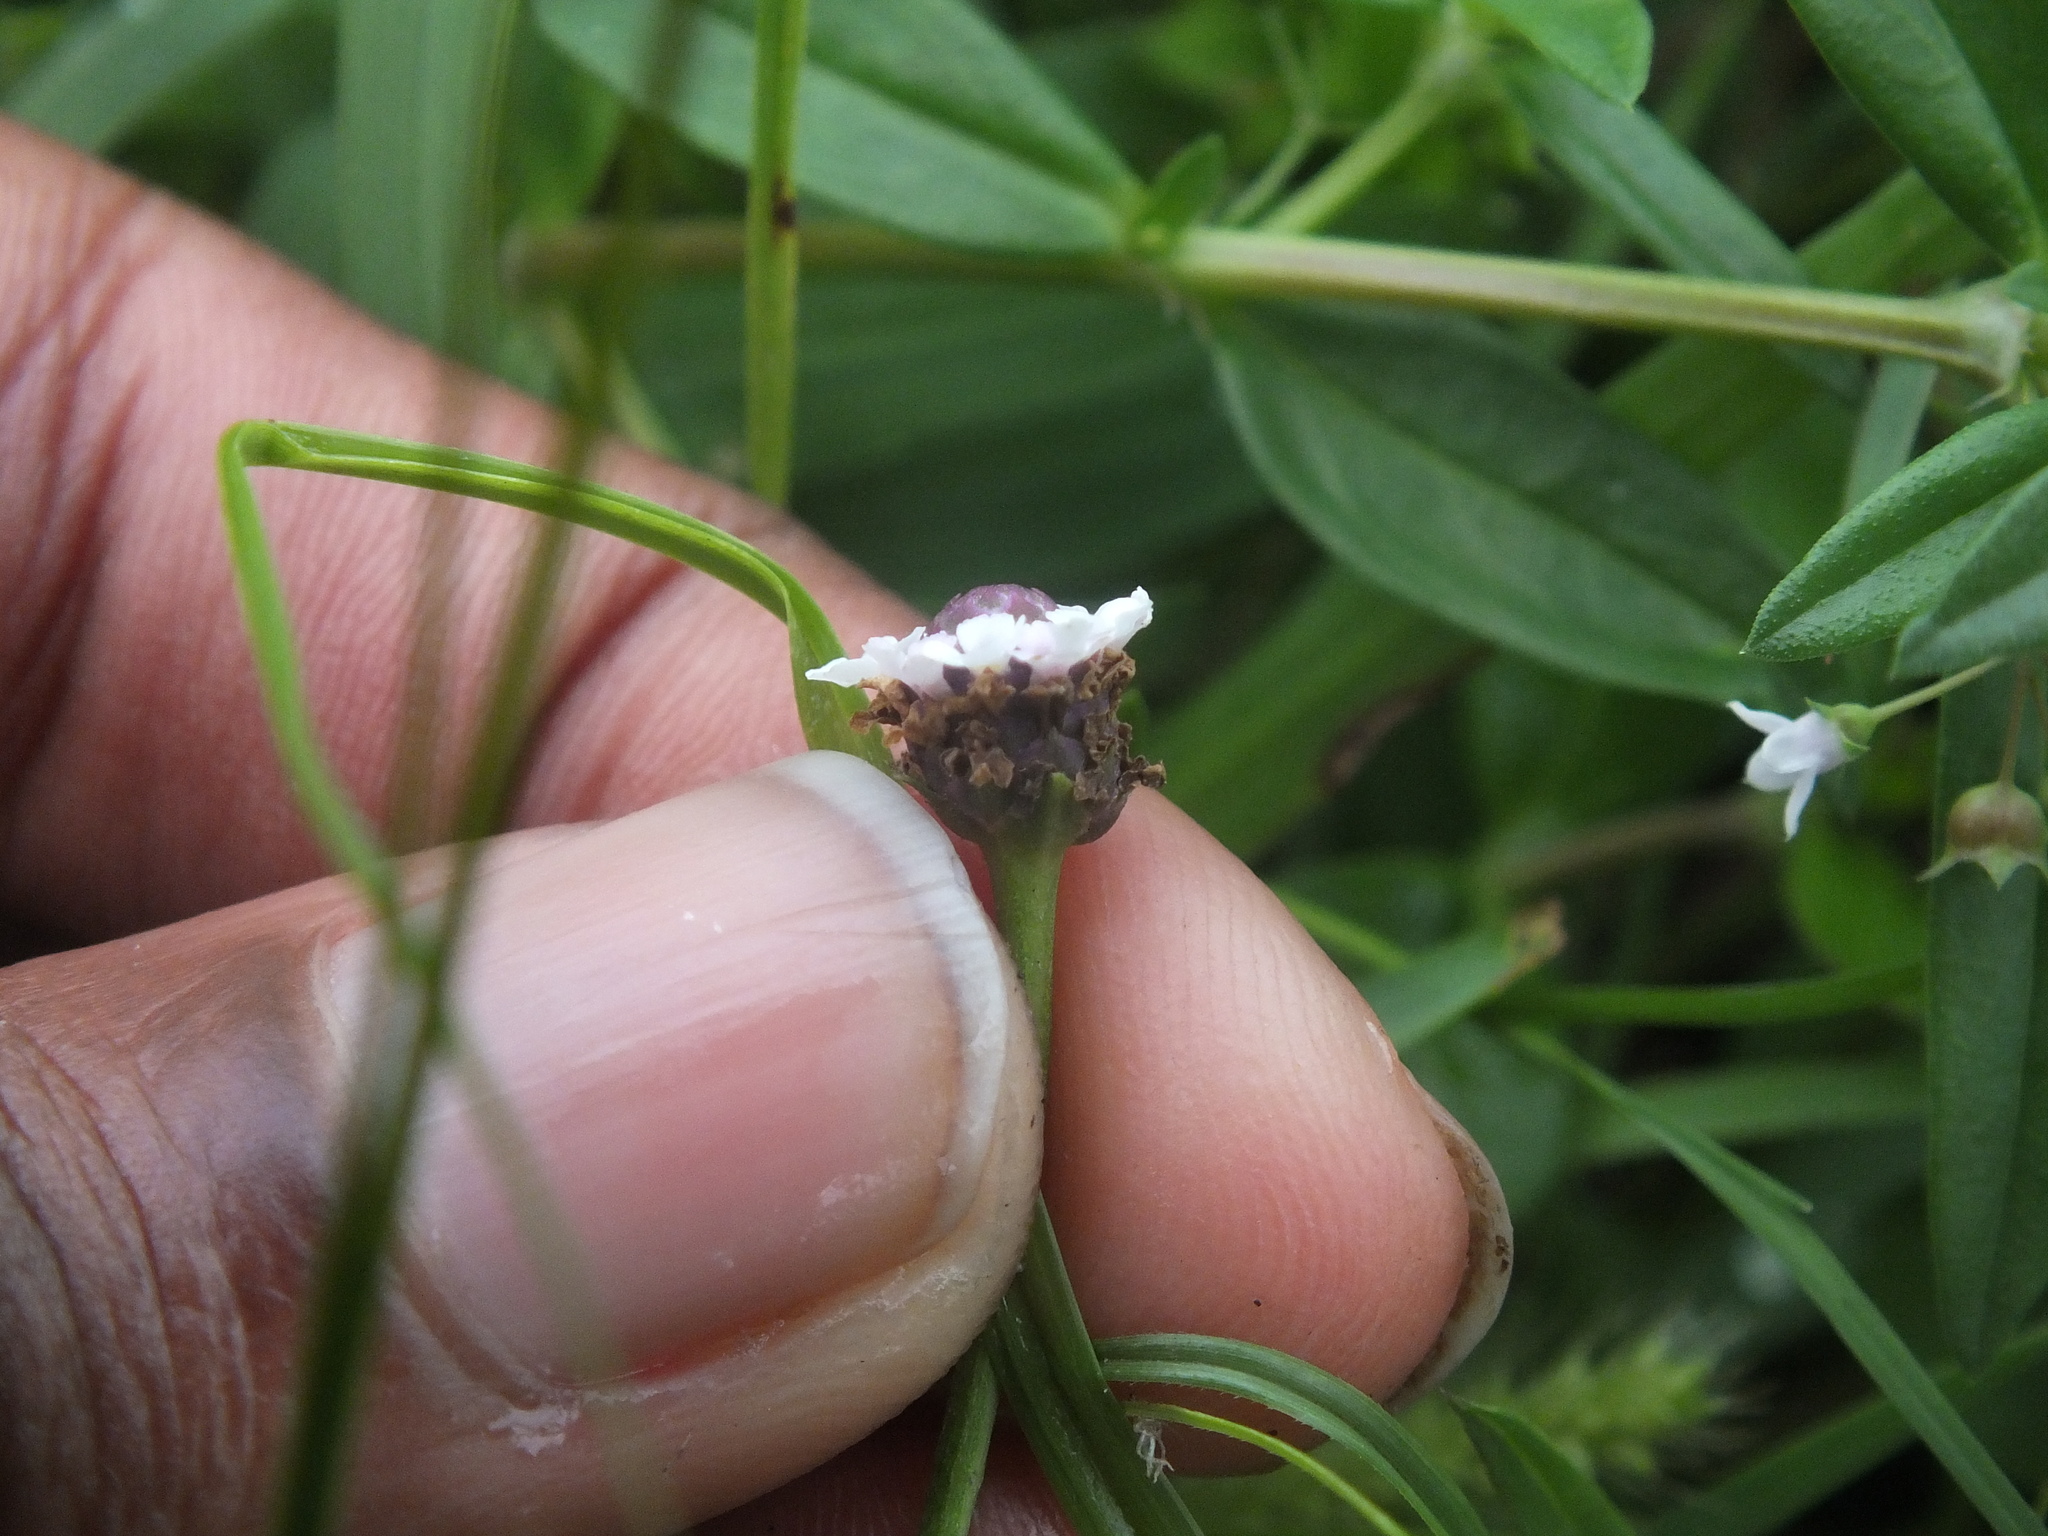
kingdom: Plantae
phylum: Tracheophyta
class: Magnoliopsida
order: Lamiales
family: Verbenaceae
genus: Phyla
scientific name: Phyla nodiflora
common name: Frogfruit
